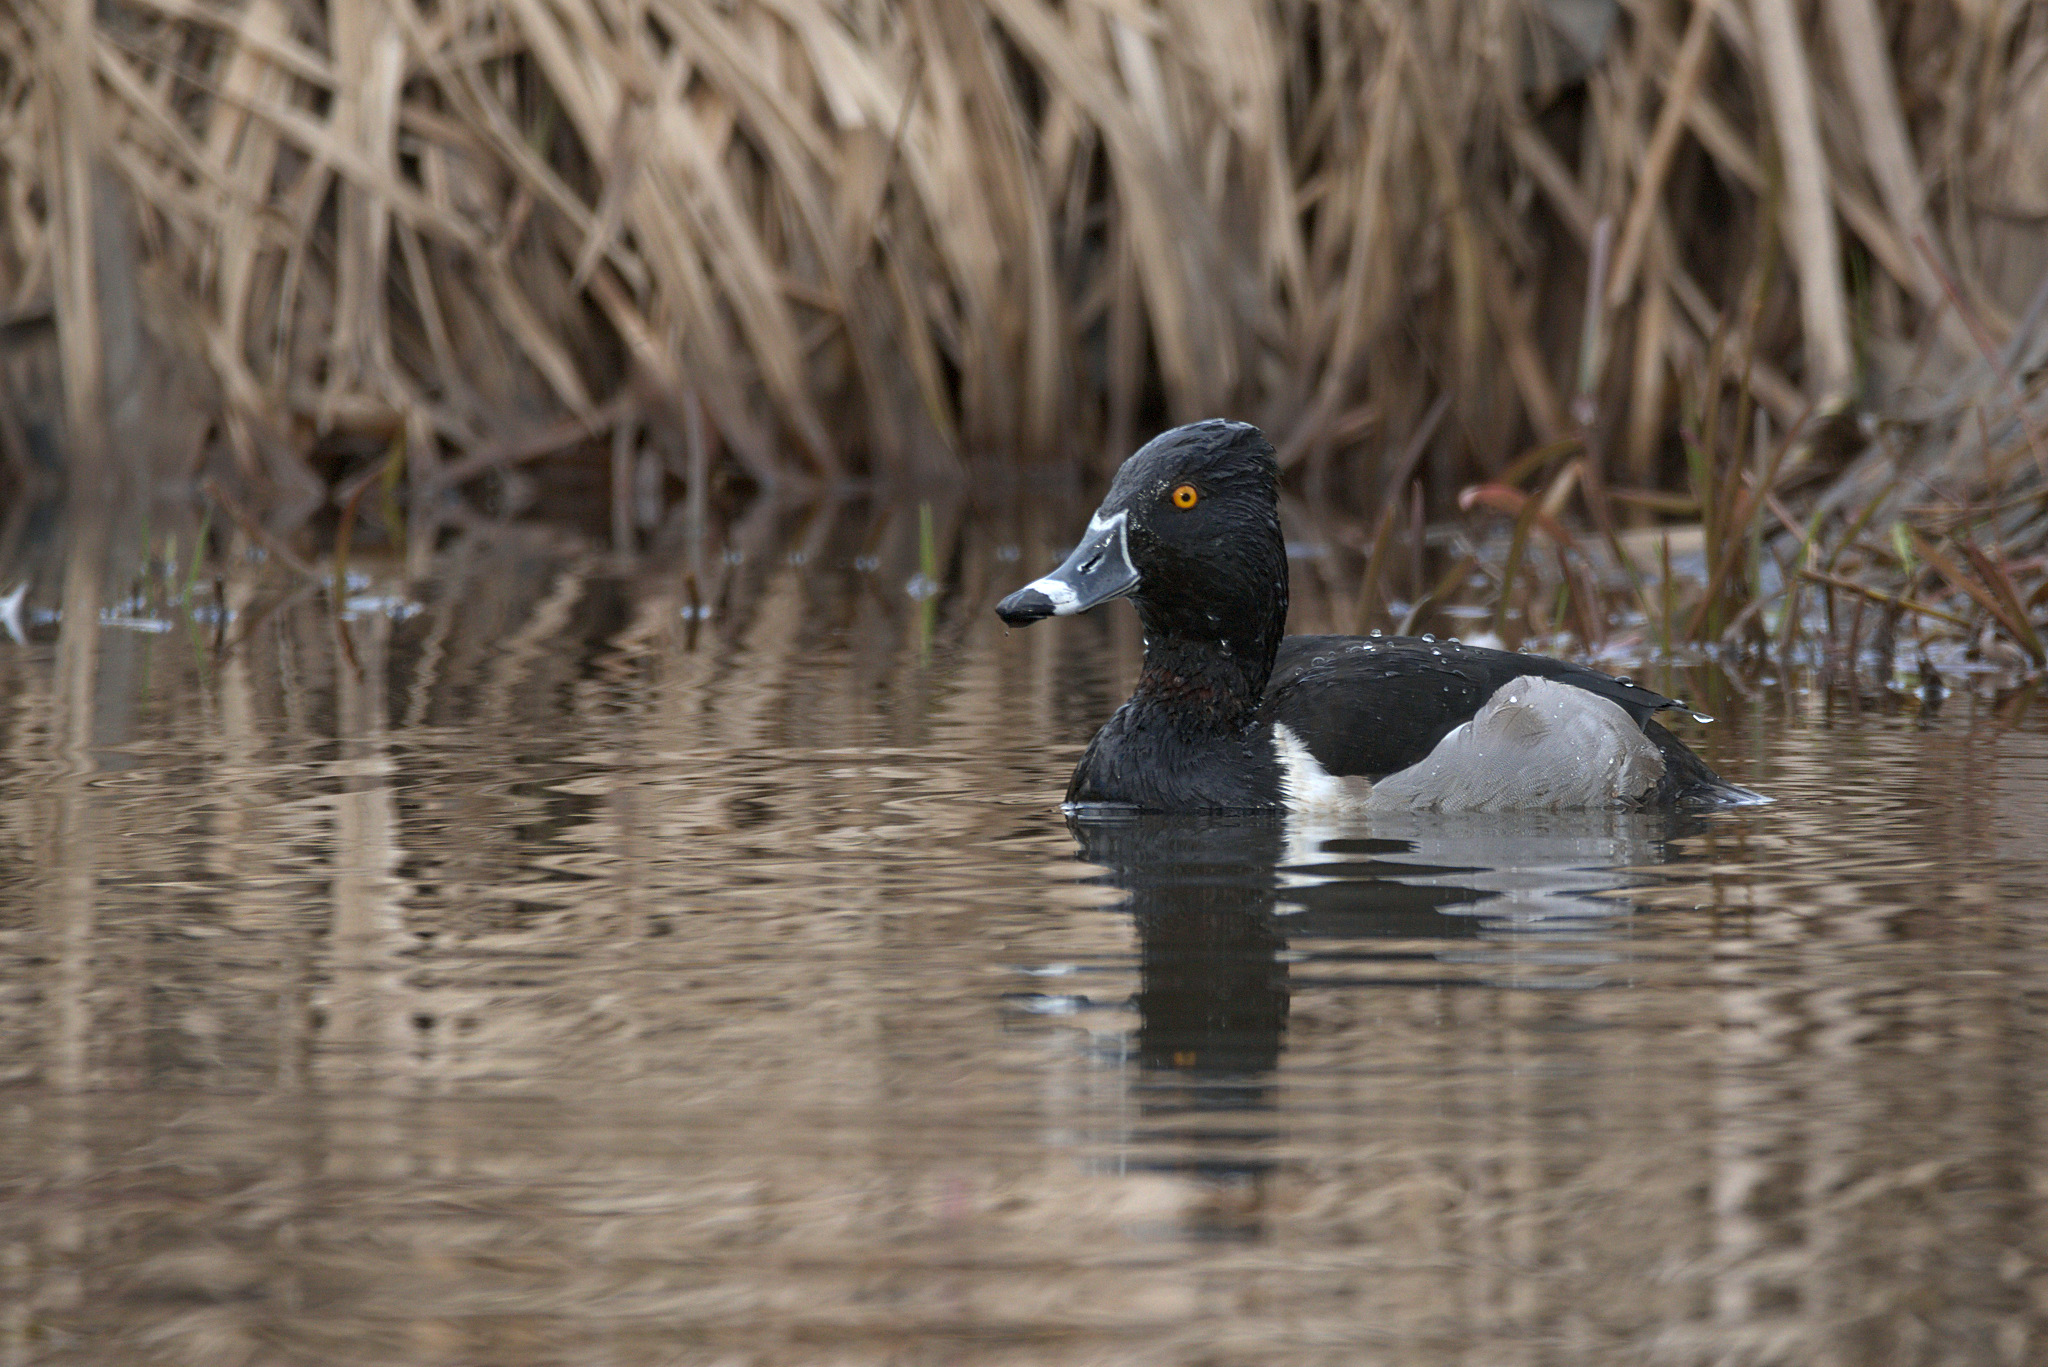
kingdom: Animalia
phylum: Chordata
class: Aves
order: Anseriformes
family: Anatidae
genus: Aythya
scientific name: Aythya collaris
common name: Ring-necked duck
